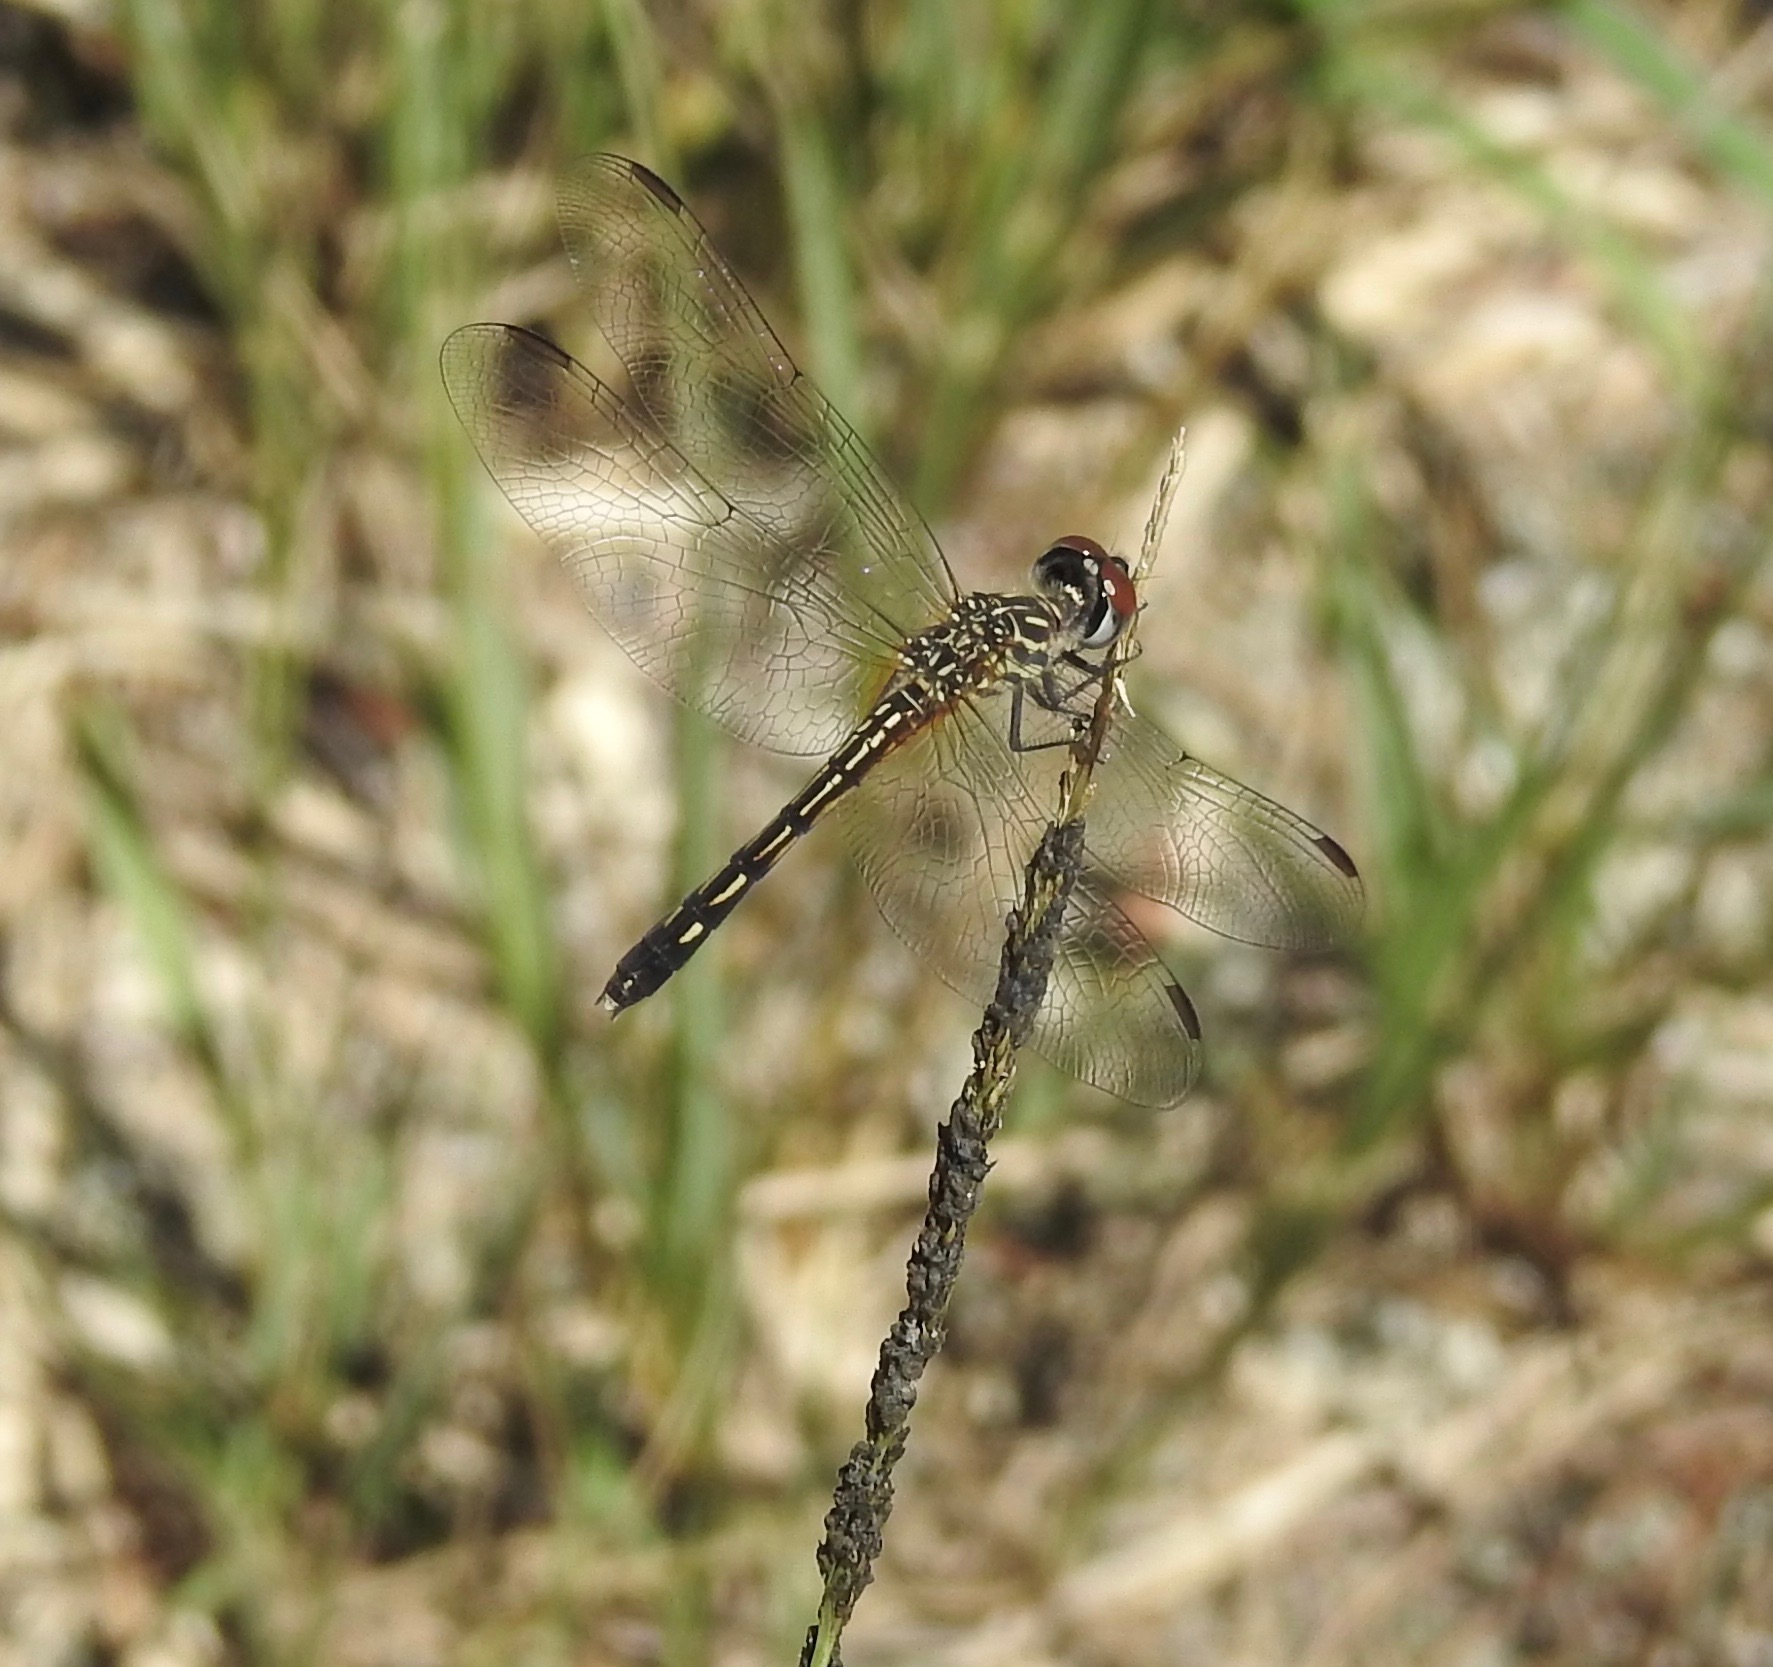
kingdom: Animalia
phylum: Arthropoda
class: Insecta
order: Odonata
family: Libellulidae
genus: Pachydiplax
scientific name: Pachydiplax longipennis
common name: Blue dasher
